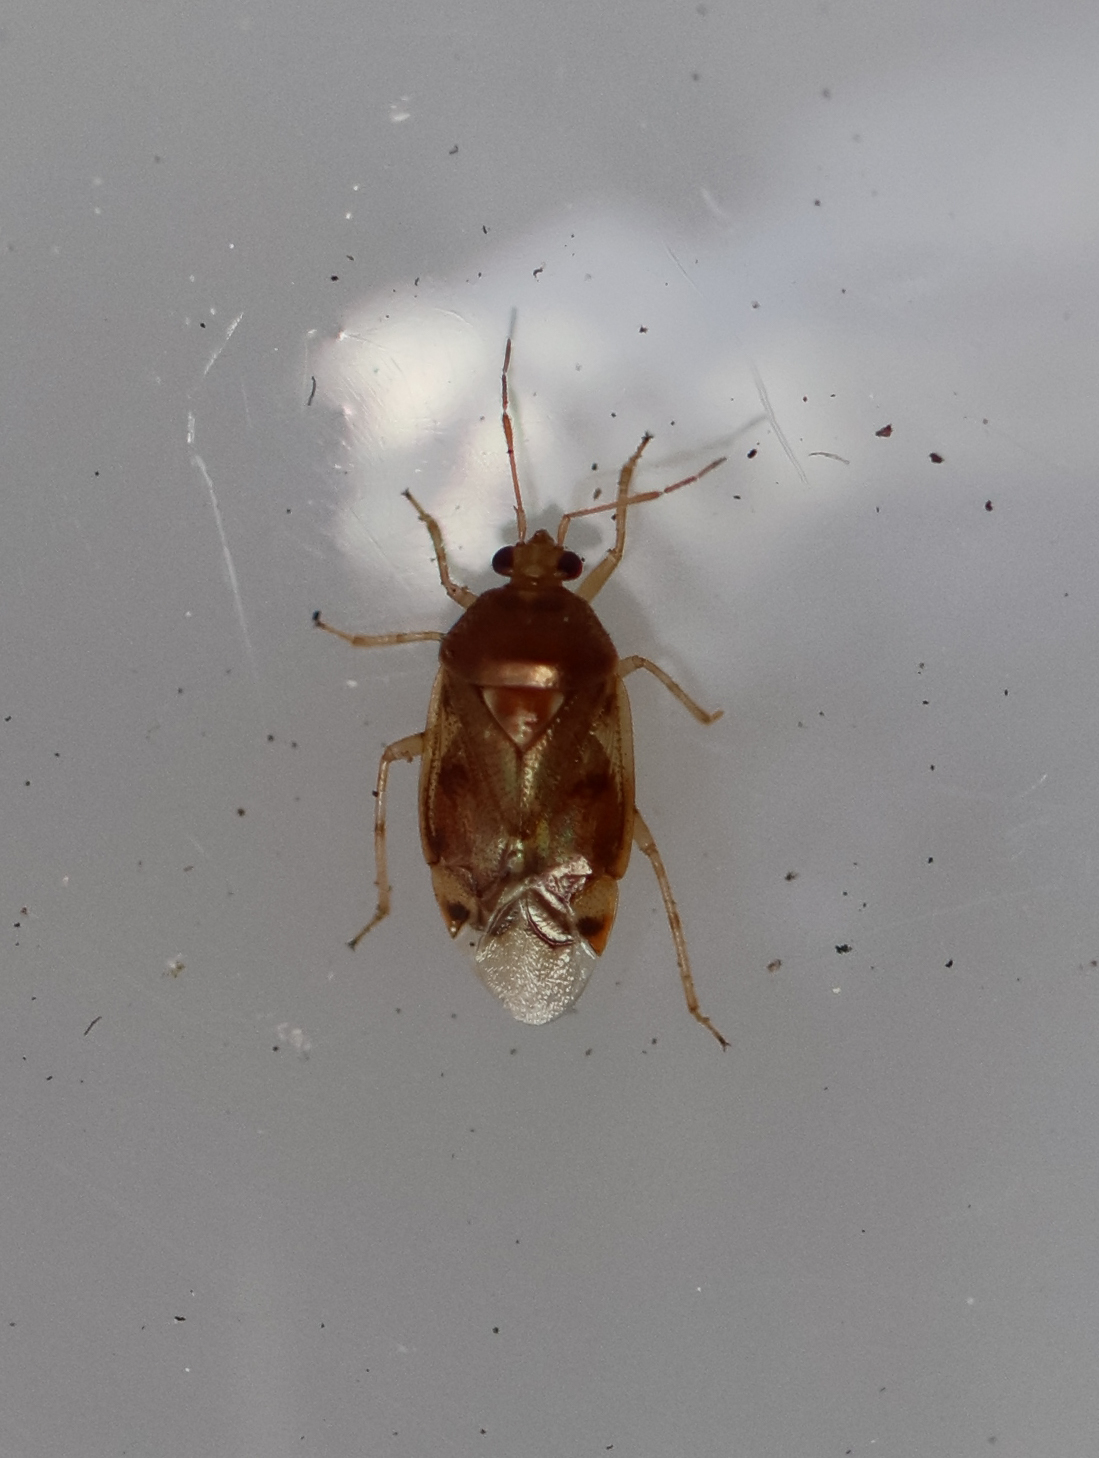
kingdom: Animalia
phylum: Arthropoda
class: Insecta
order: Hemiptera
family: Miridae
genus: Deraeocoris
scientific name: Deraeocoris lutescens
